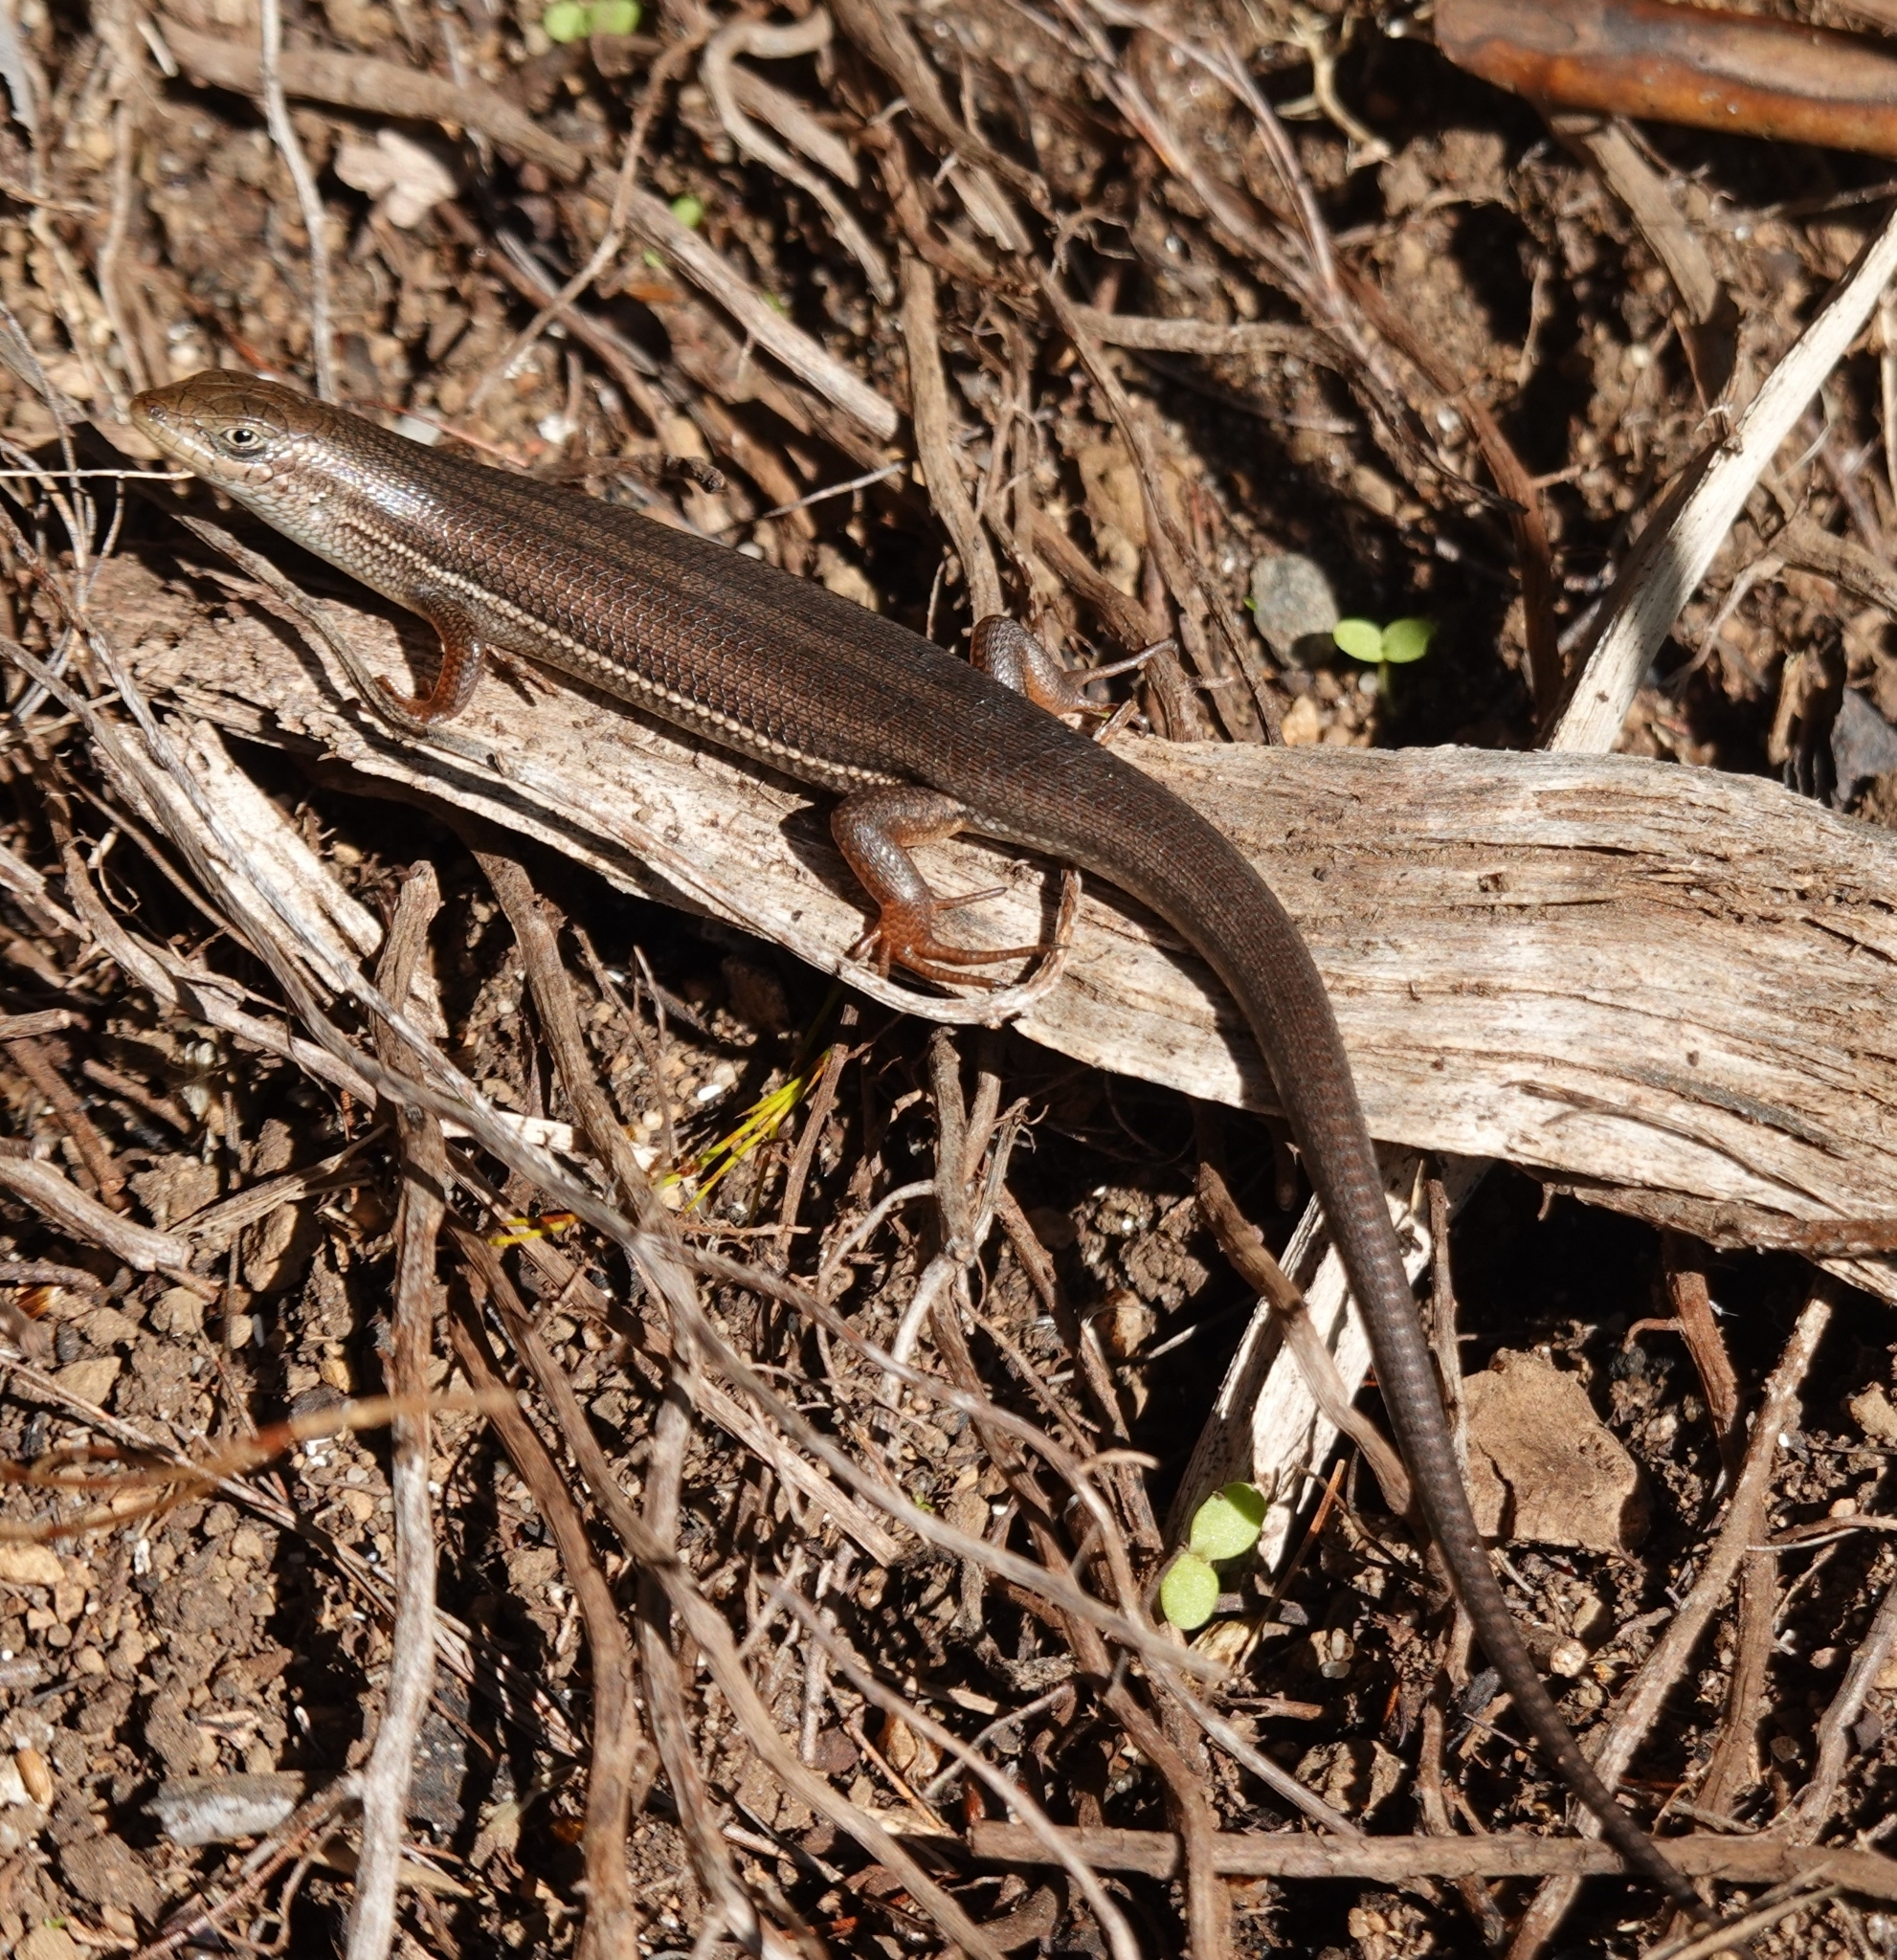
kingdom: Animalia
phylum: Chordata
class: Squamata
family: Scincidae
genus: Trachylepis
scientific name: Trachylepis homalocephala
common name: Red-sided skink
